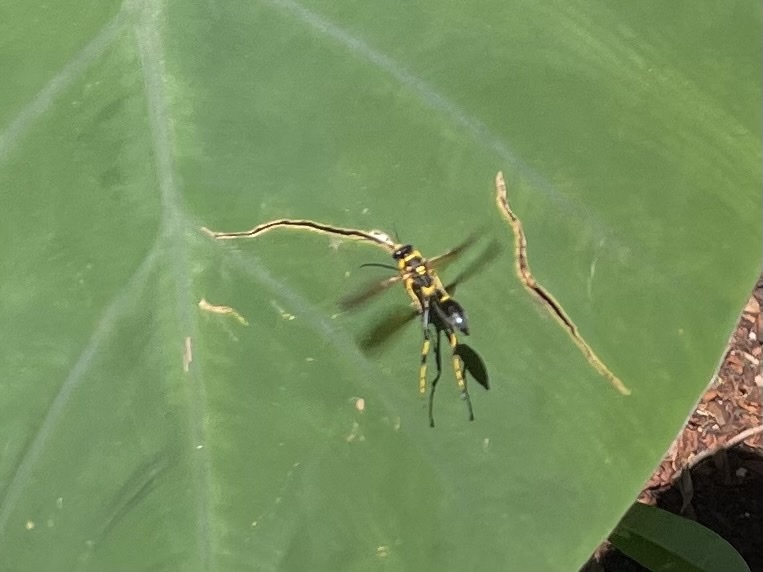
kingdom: Animalia
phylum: Arthropoda
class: Insecta
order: Hymenoptera
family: Sphecidae
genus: Sceliphron
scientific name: Sceliphron caementarium
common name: Mud dauber
